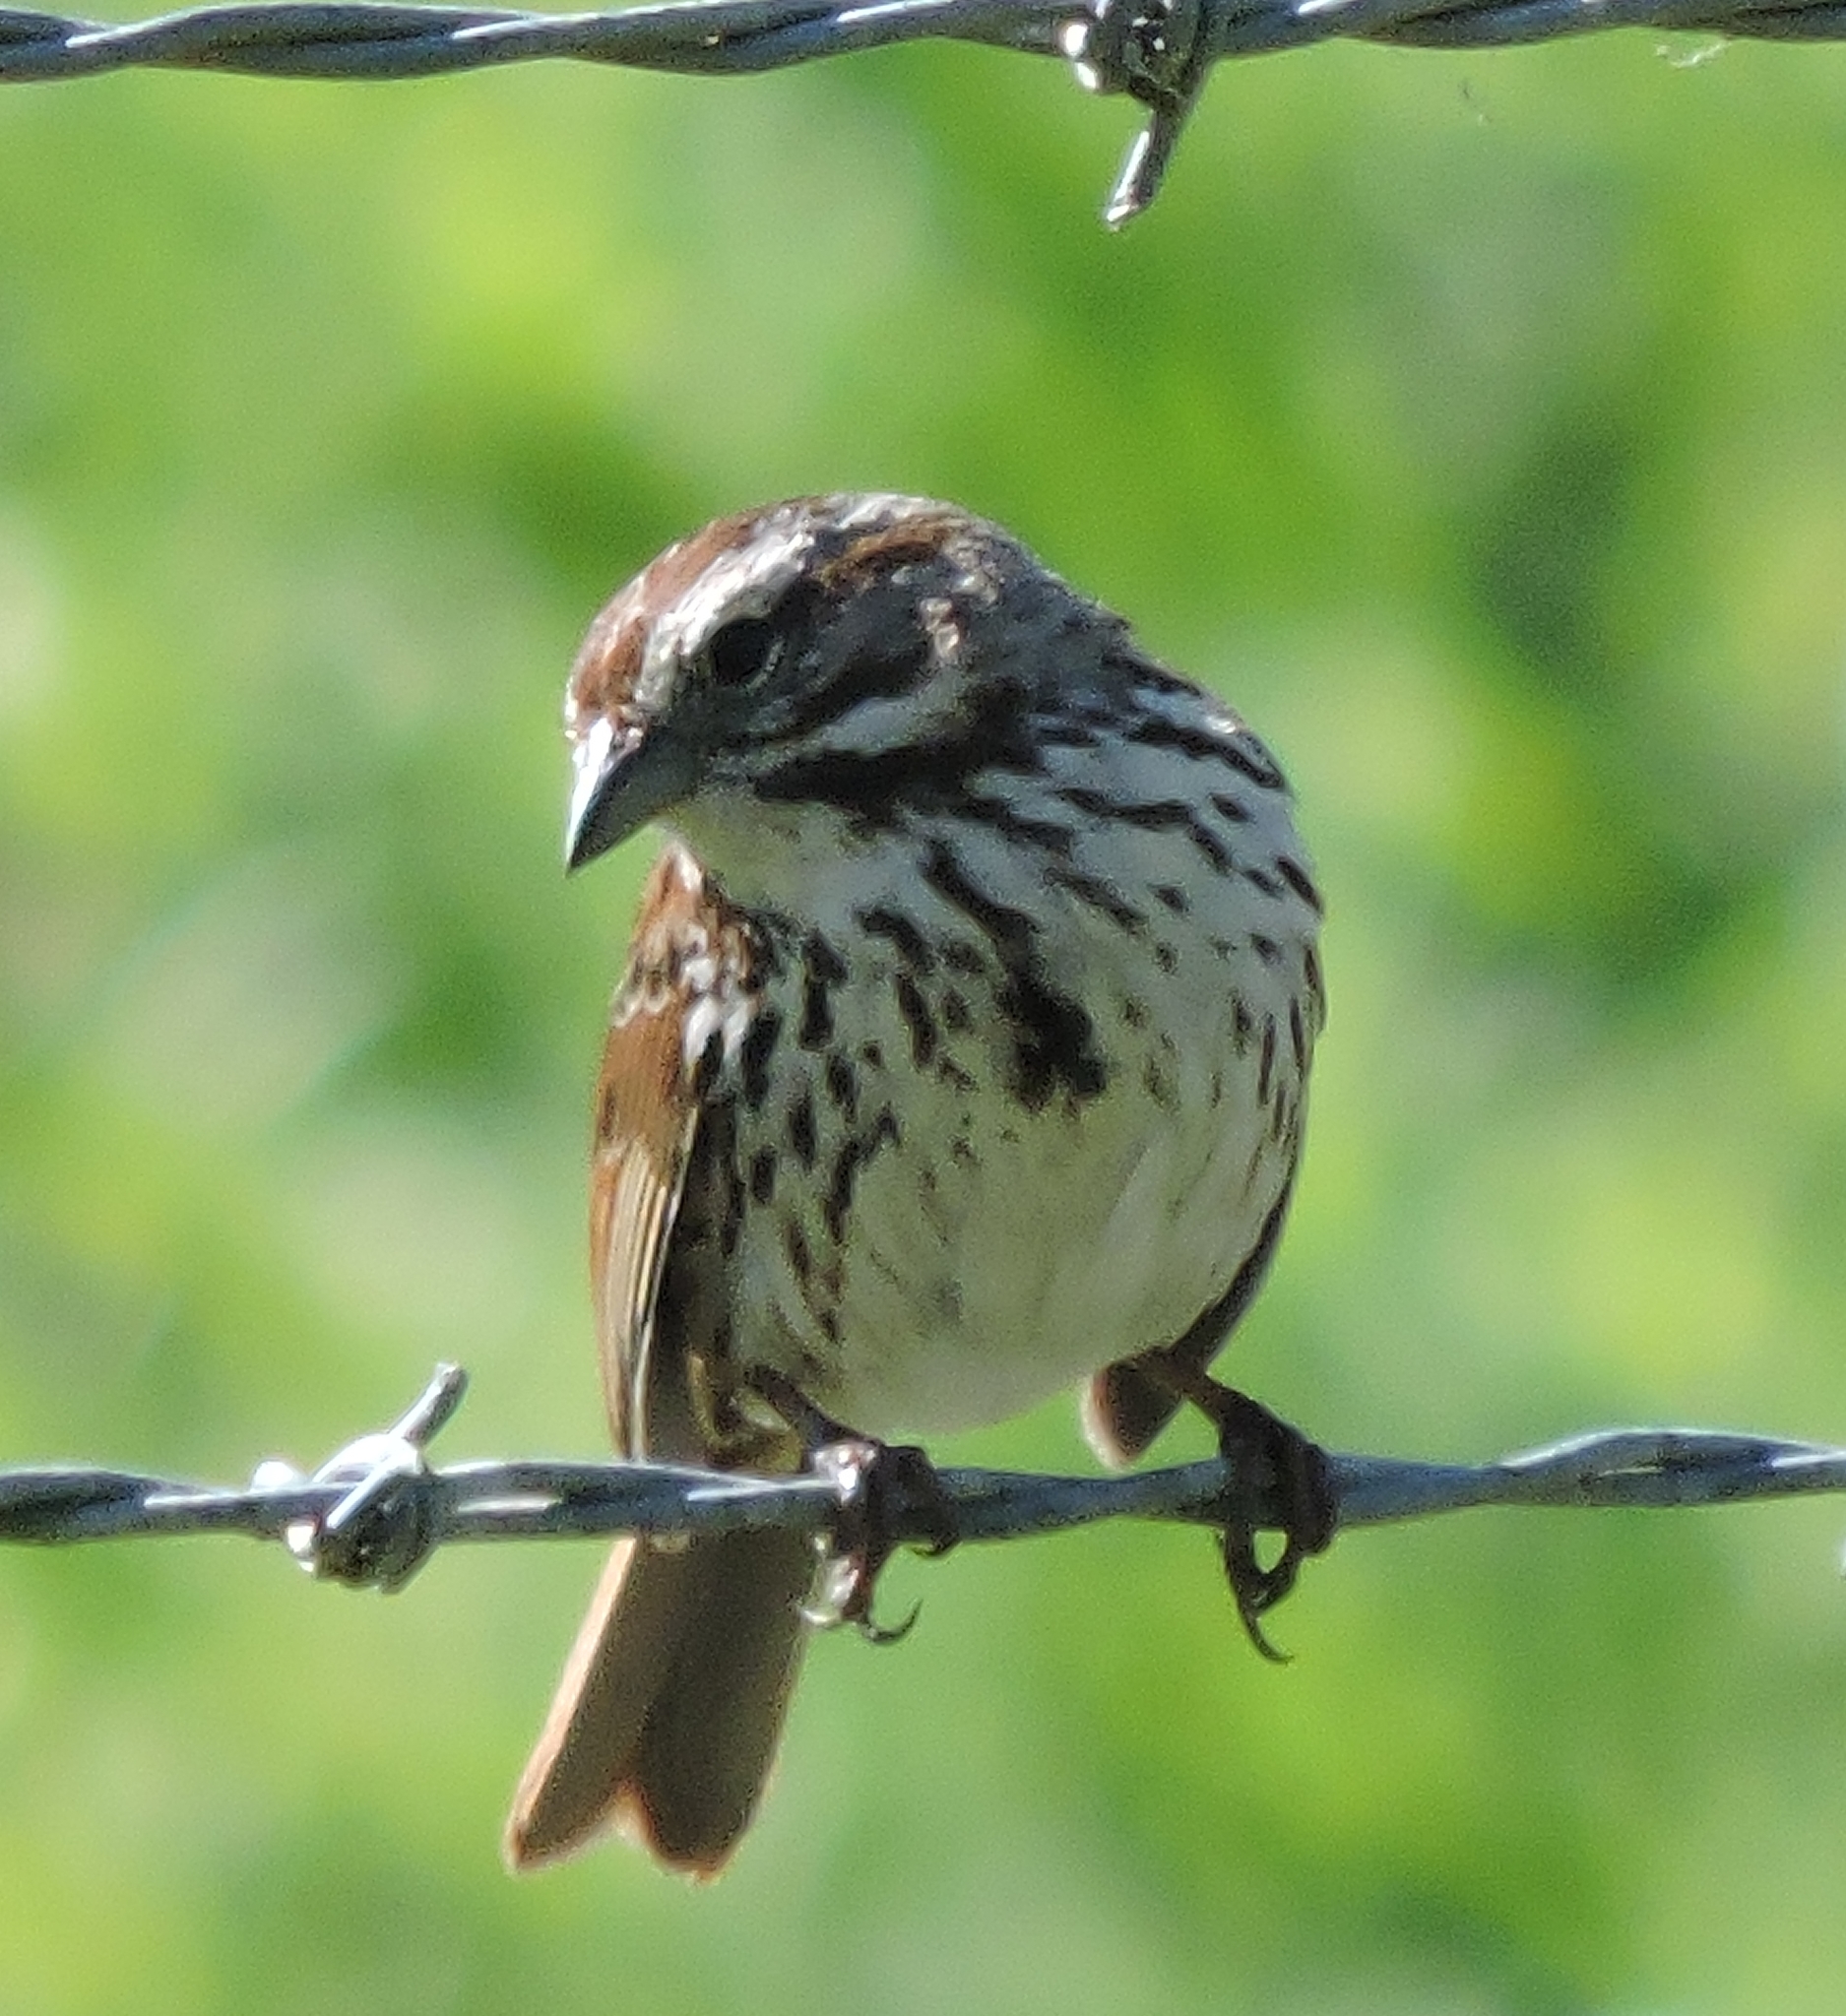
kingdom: Animalia
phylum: Chordata
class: Aves
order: Passeriformes
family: Passerellidae
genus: Melospiza
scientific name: Melospiza melodia
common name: Song sparrow
